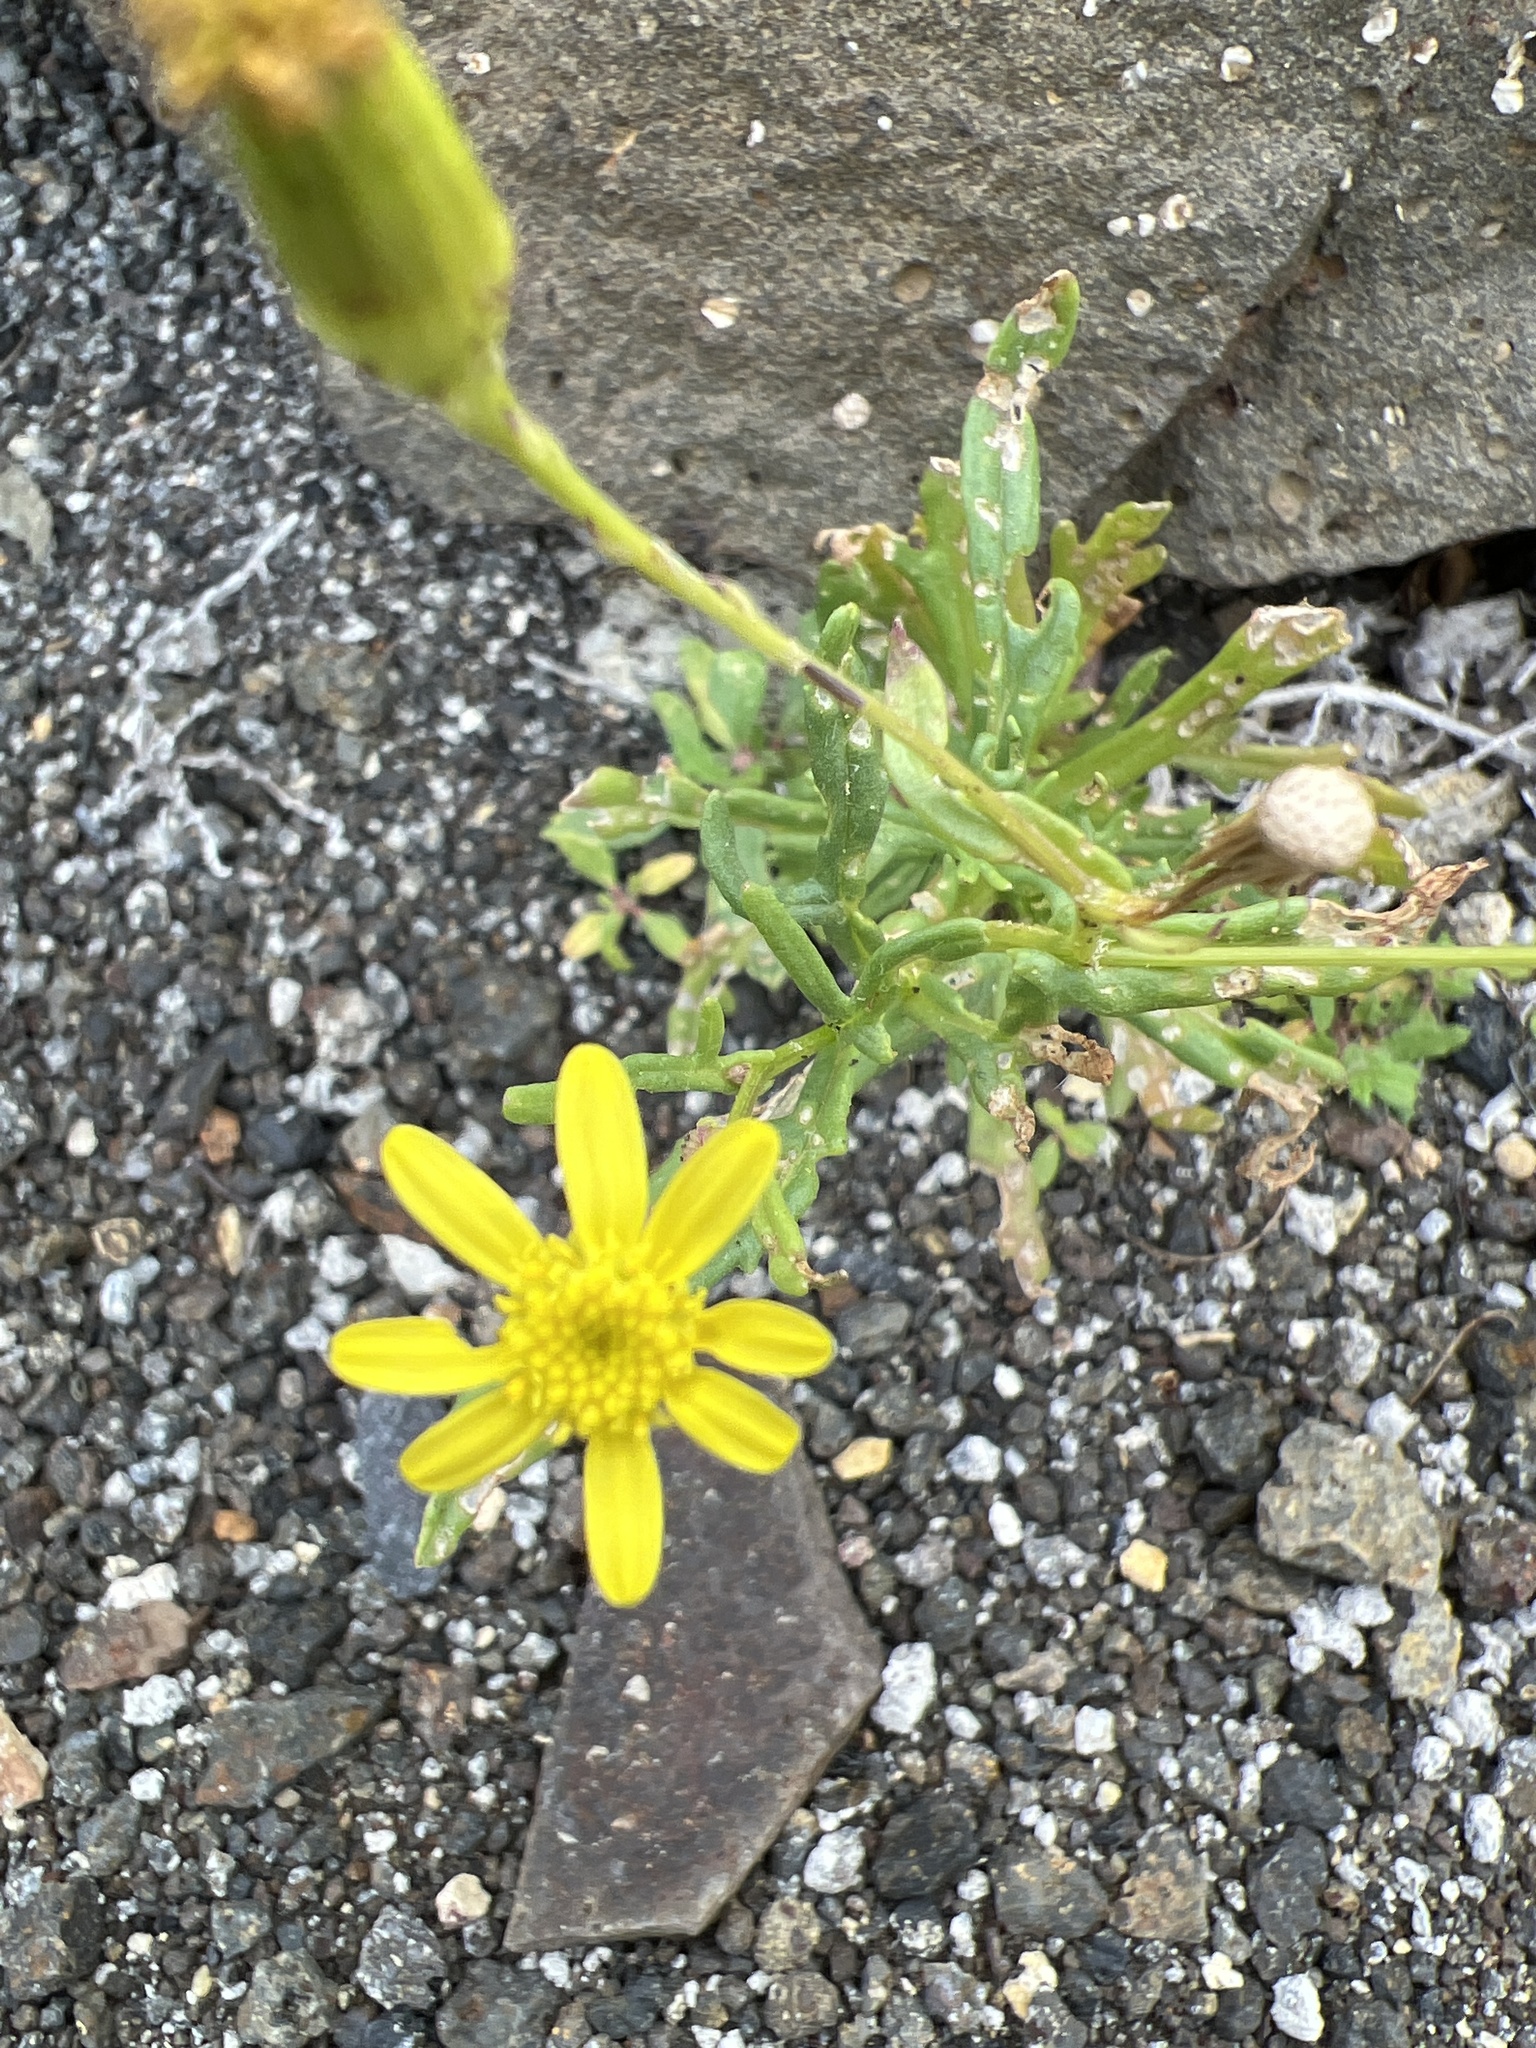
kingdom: Plantae
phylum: Tracheophyta
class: Magnoliopsida
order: Asterales
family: Asteraceae
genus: Senecio
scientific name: Senecio glaucus
